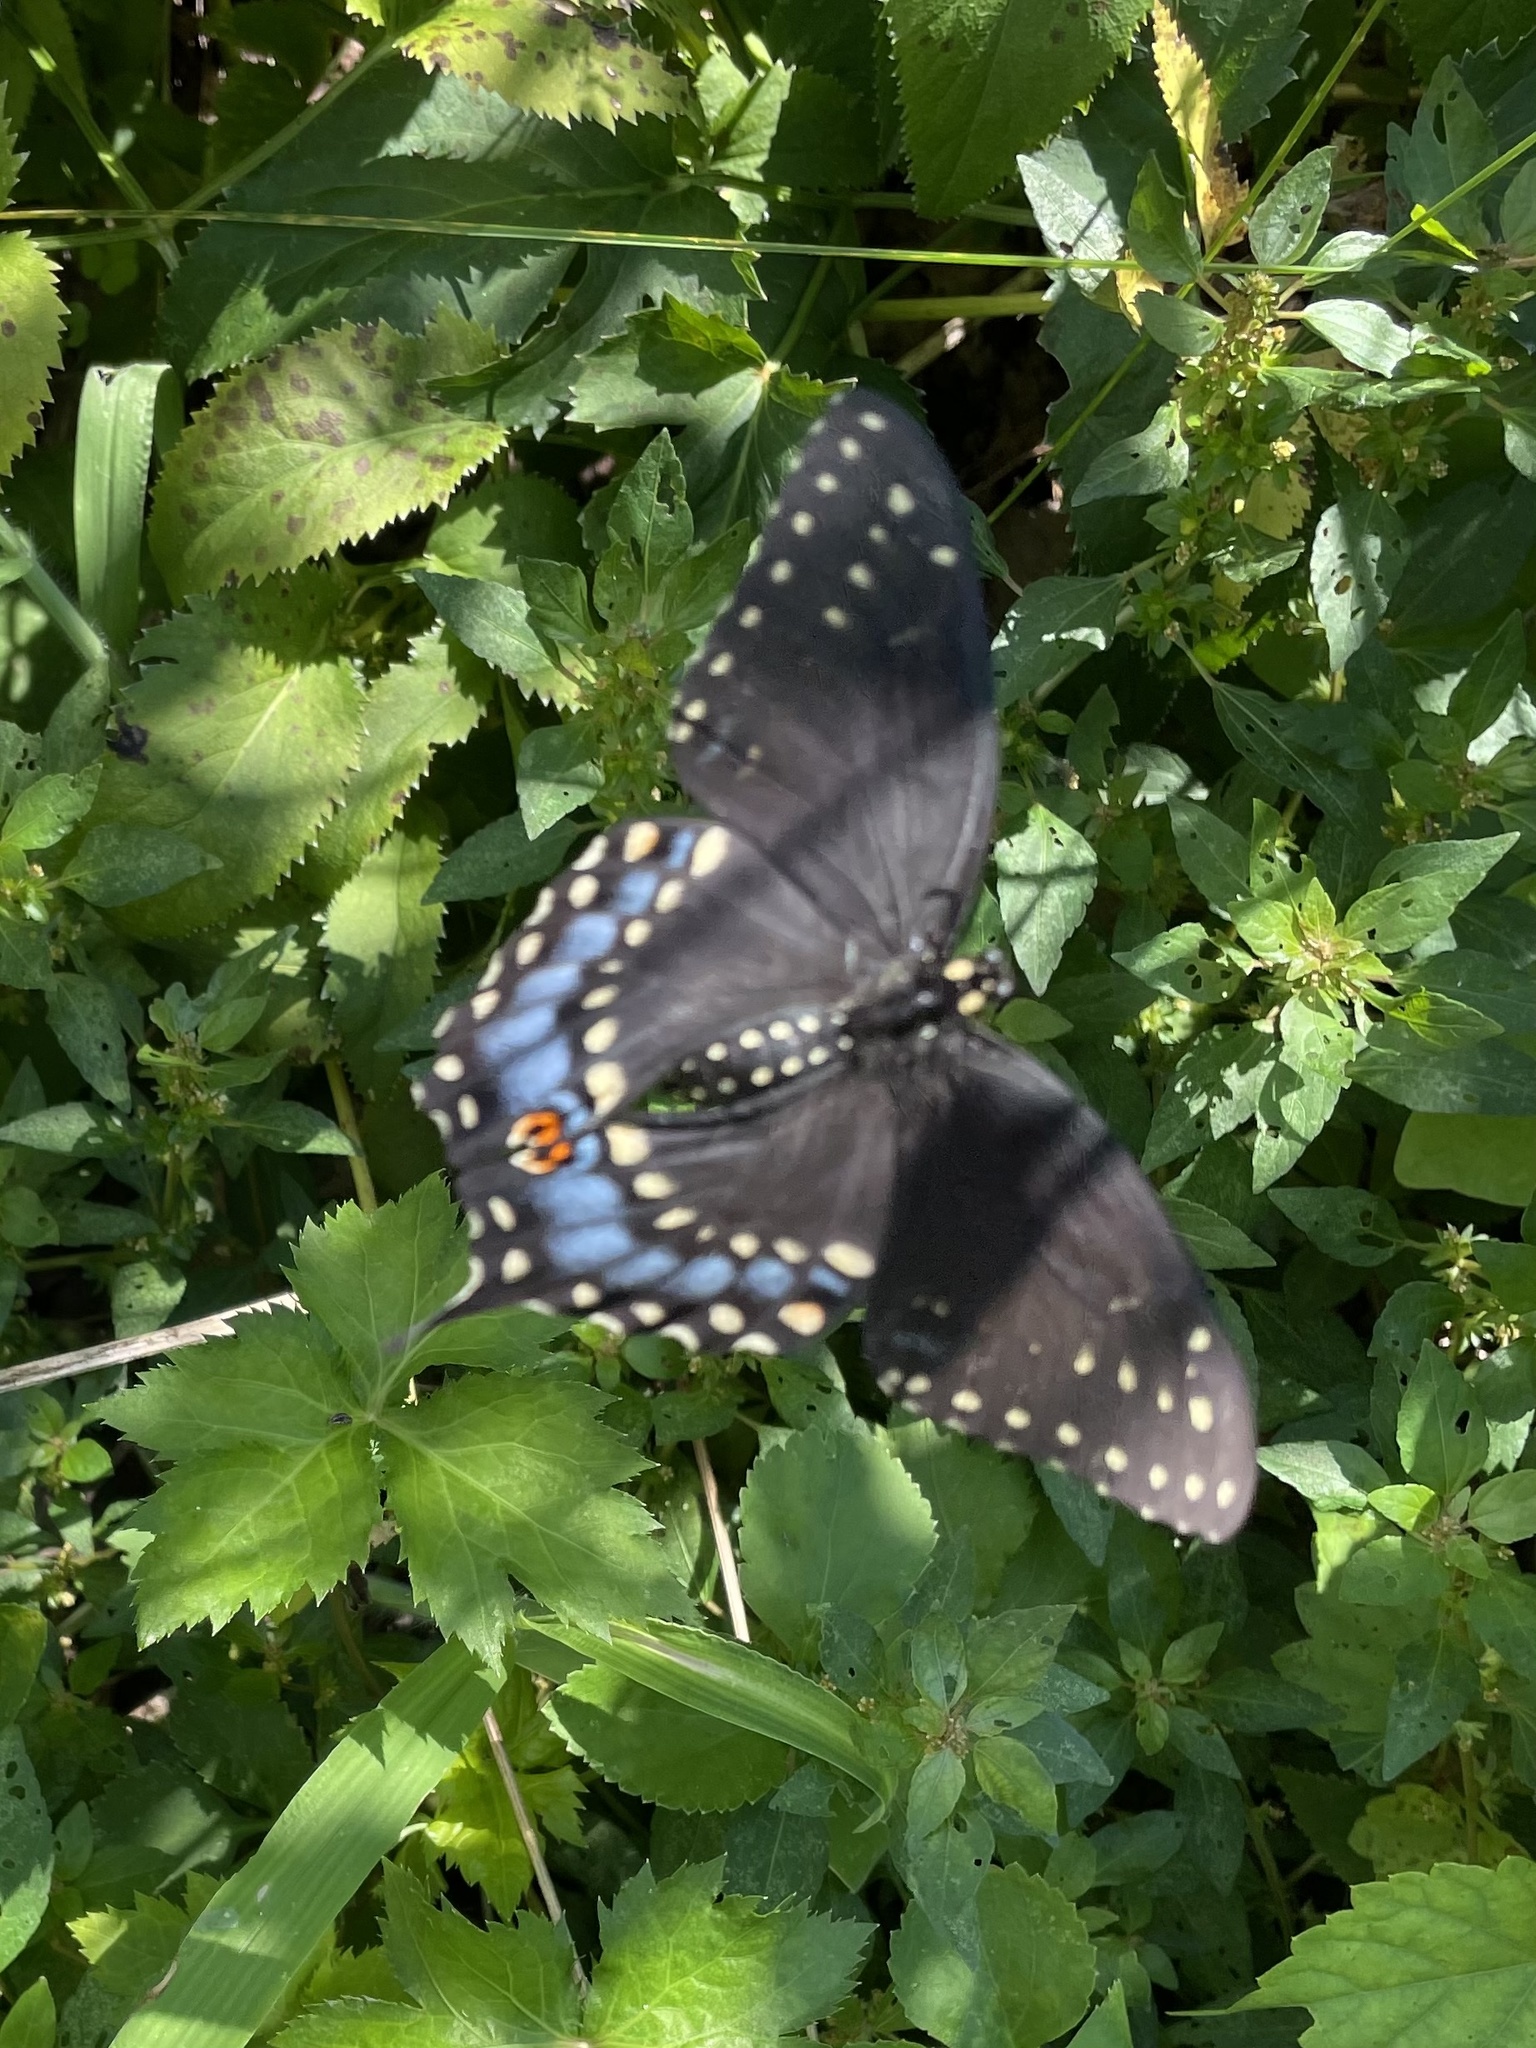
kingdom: Animalia
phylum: Arthropoda
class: Insecta
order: Lepidoptera
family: Papilionidae
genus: Papilio
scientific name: Papilio polyxenes
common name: Black swallowtail
